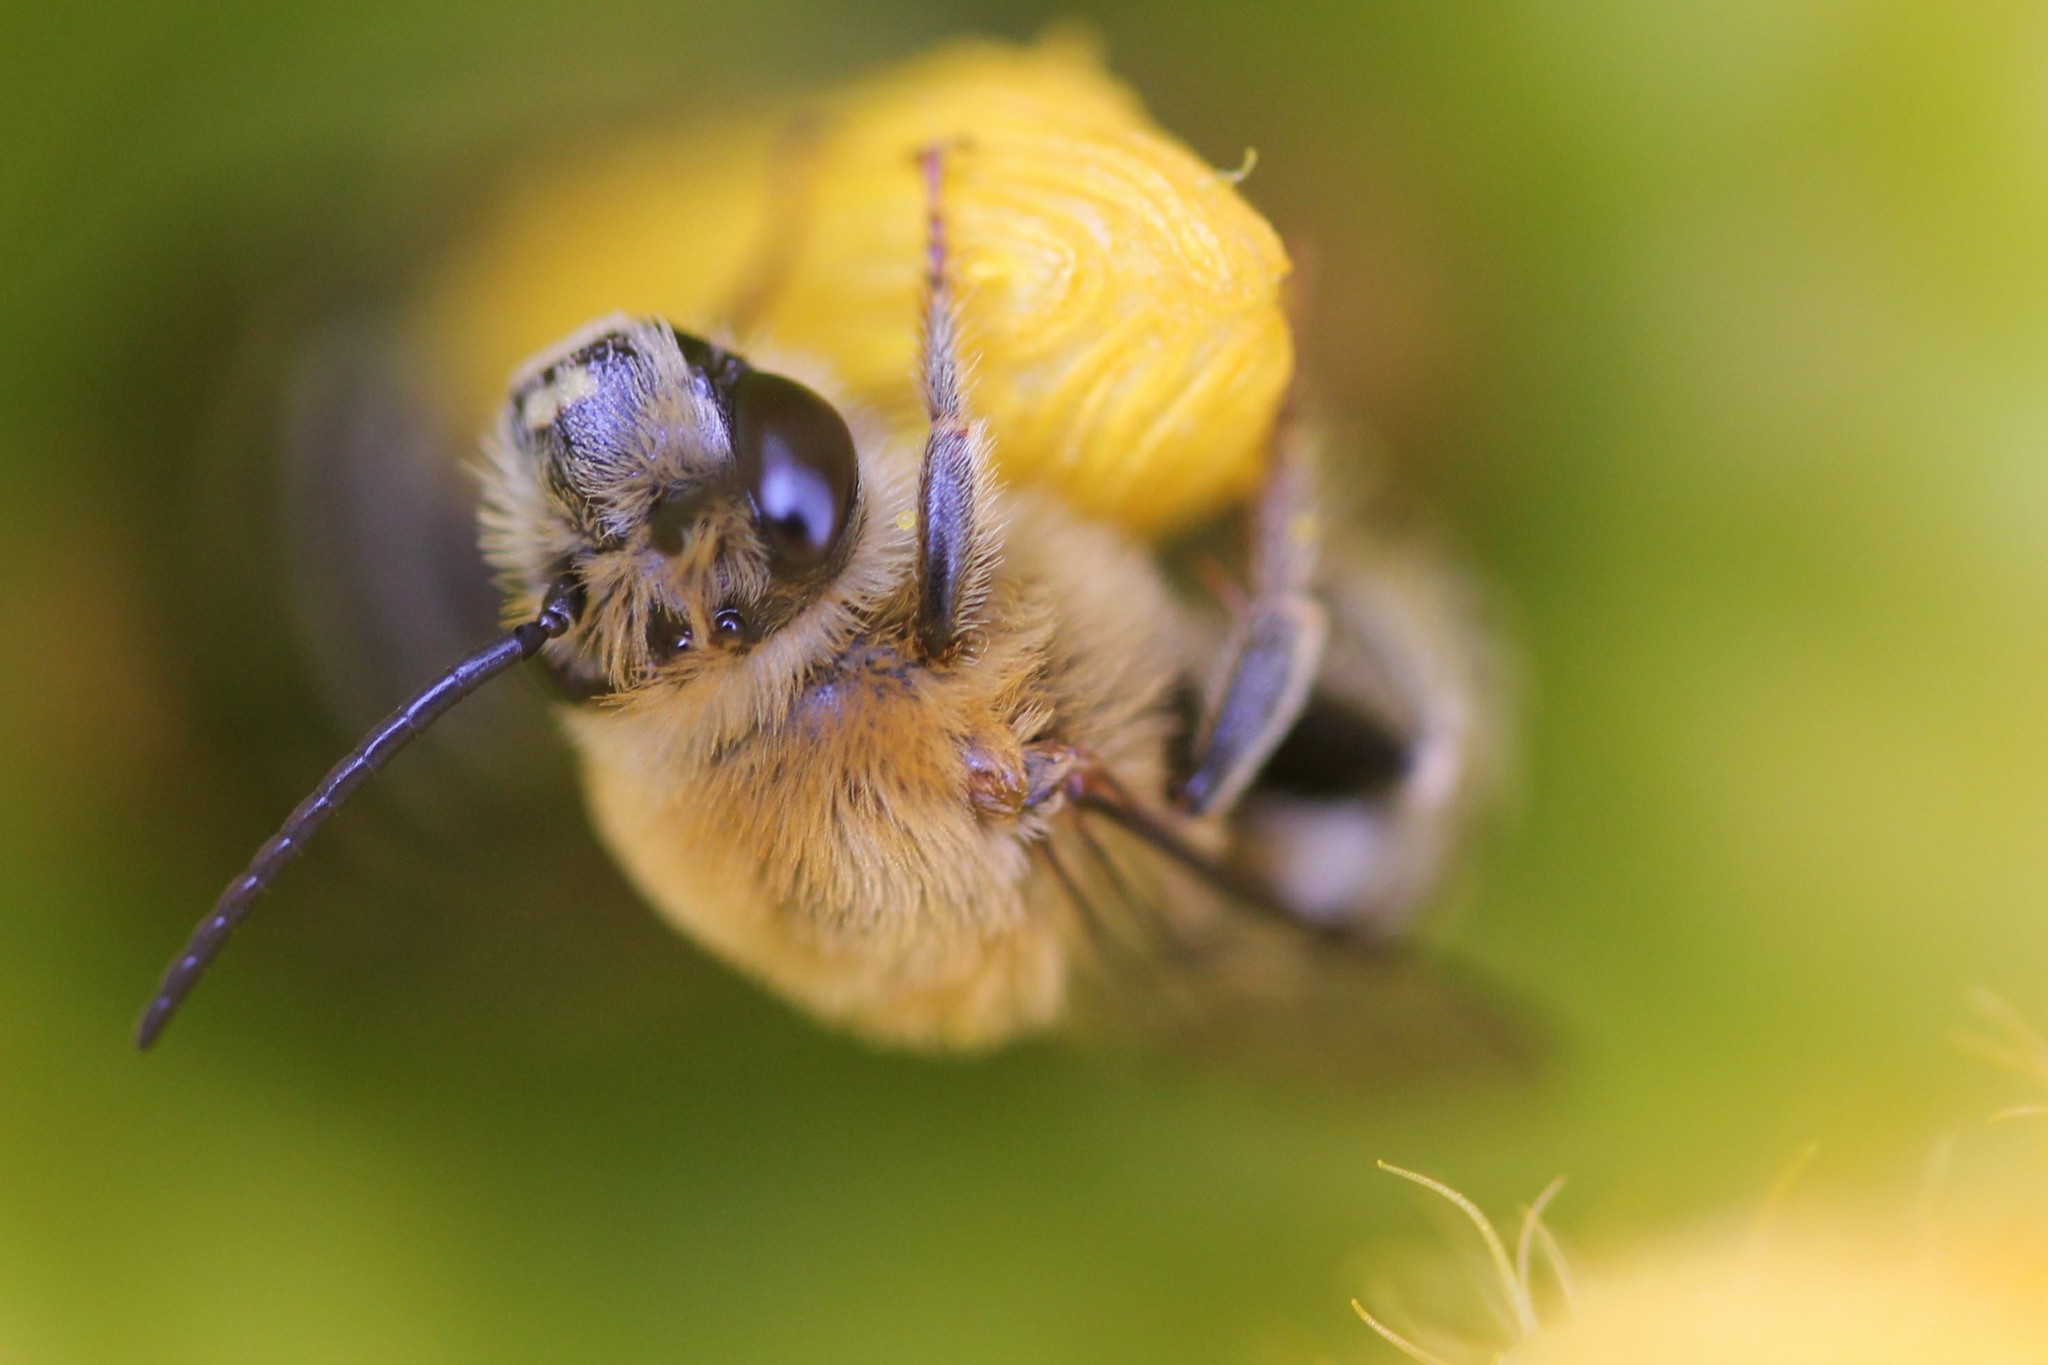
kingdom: Animalia
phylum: Arthropoda
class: Insecta
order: Hymenoptera
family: Apidae
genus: Peponapis
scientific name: Peponapis pruinosa
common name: Pruinose squash bee
